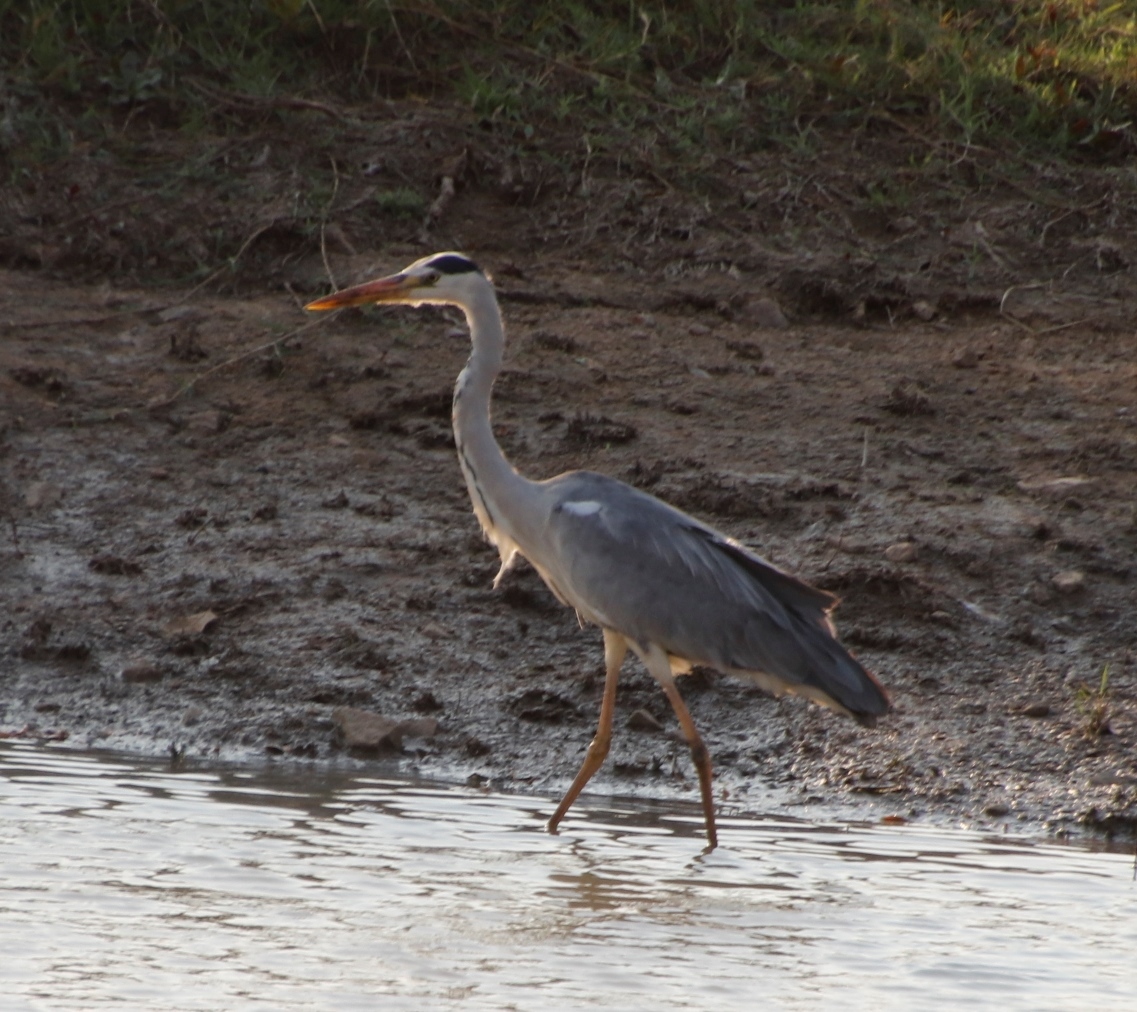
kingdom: Animalia
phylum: Chordata
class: Aves
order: Pelecaniformes
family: Ardeidae
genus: Ardea
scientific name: Ardea cinerea
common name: Grey heron
